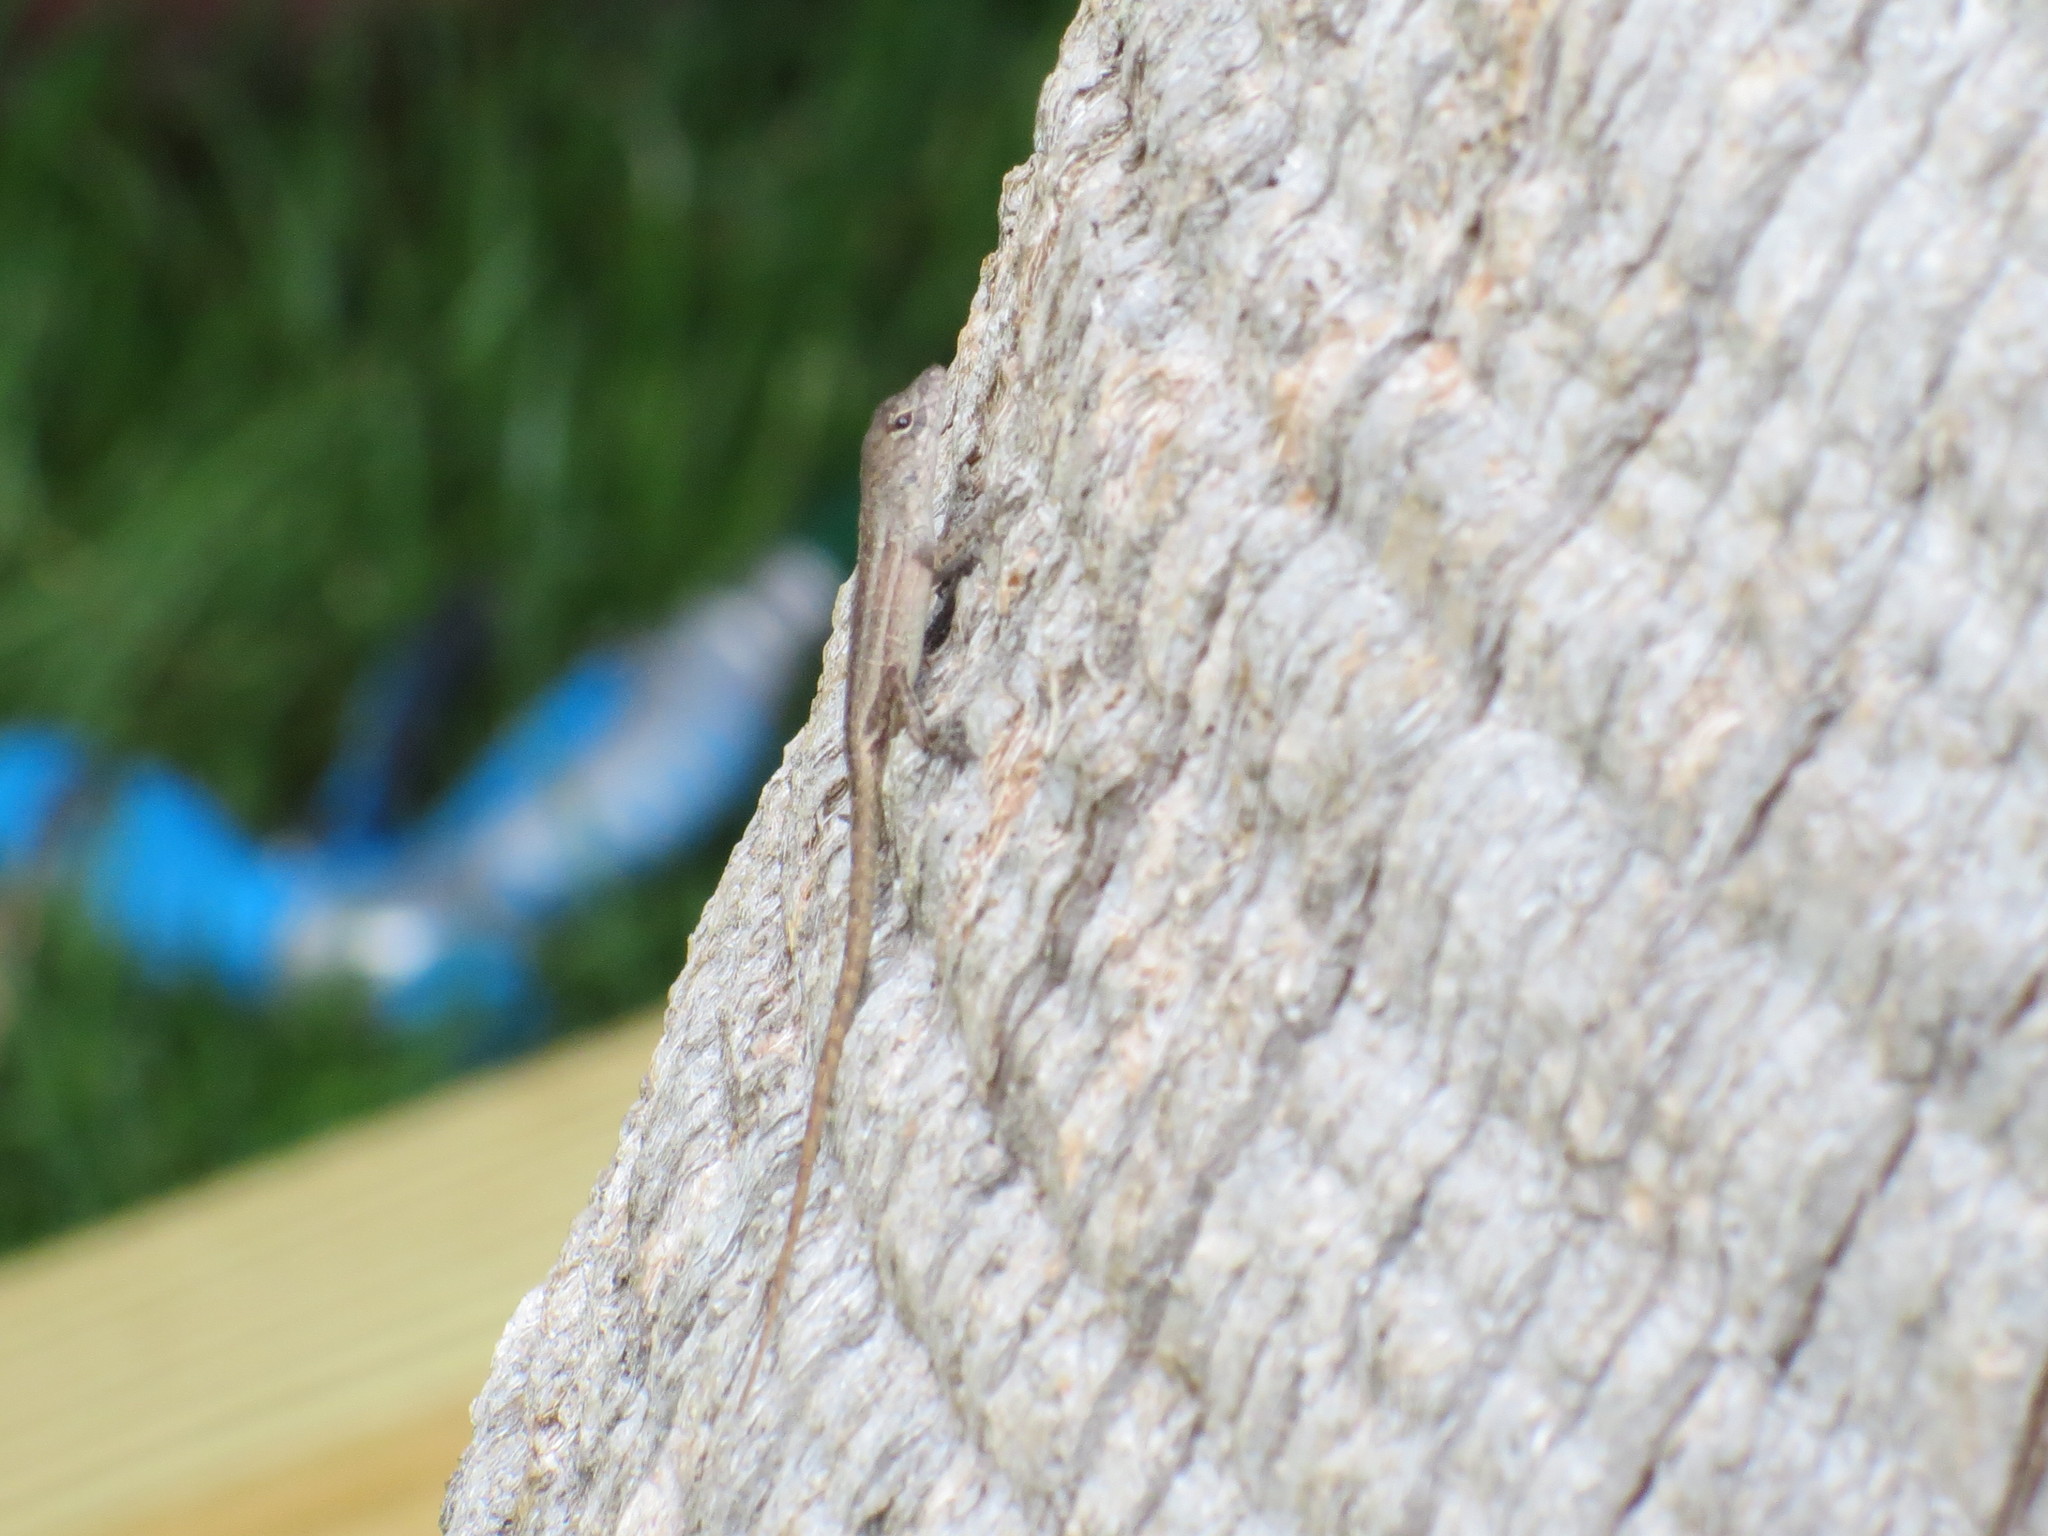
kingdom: Animalia
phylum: Chordata
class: Squamata
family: Dactyloidae
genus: Anolis
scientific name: Anolis sagrei
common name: Brown anole
